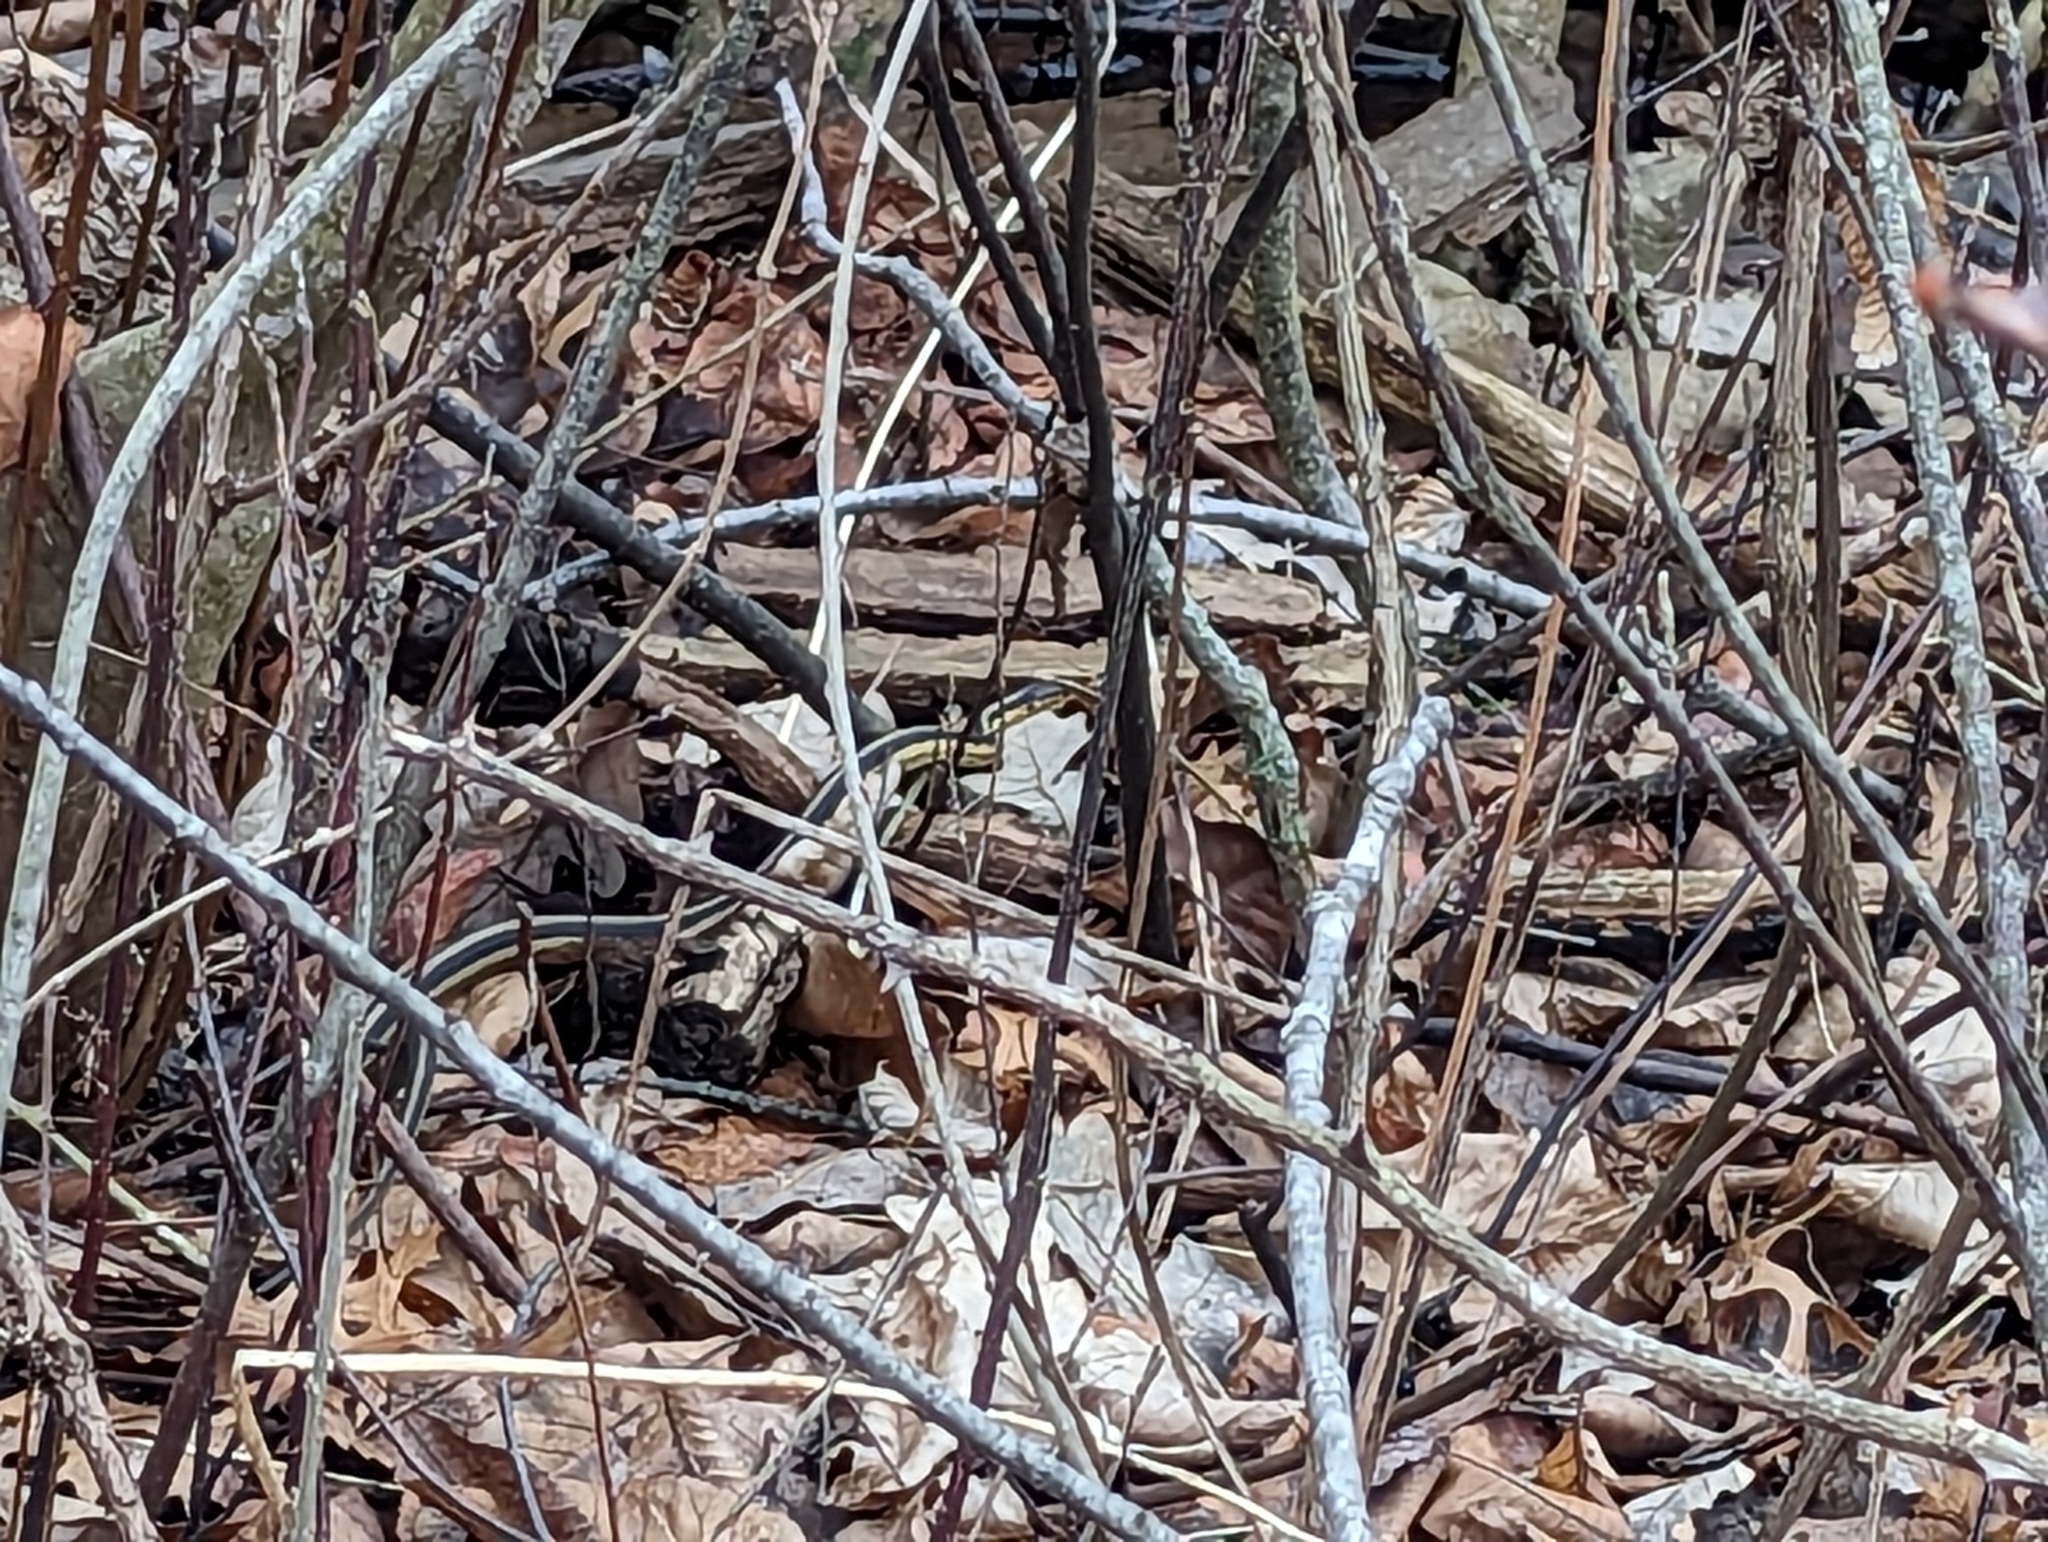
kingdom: Animalia
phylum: Chordata
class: Squamata
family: Colubridae
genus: Thamnophis
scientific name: Thamnophis sirtalis
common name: Common garter snake
